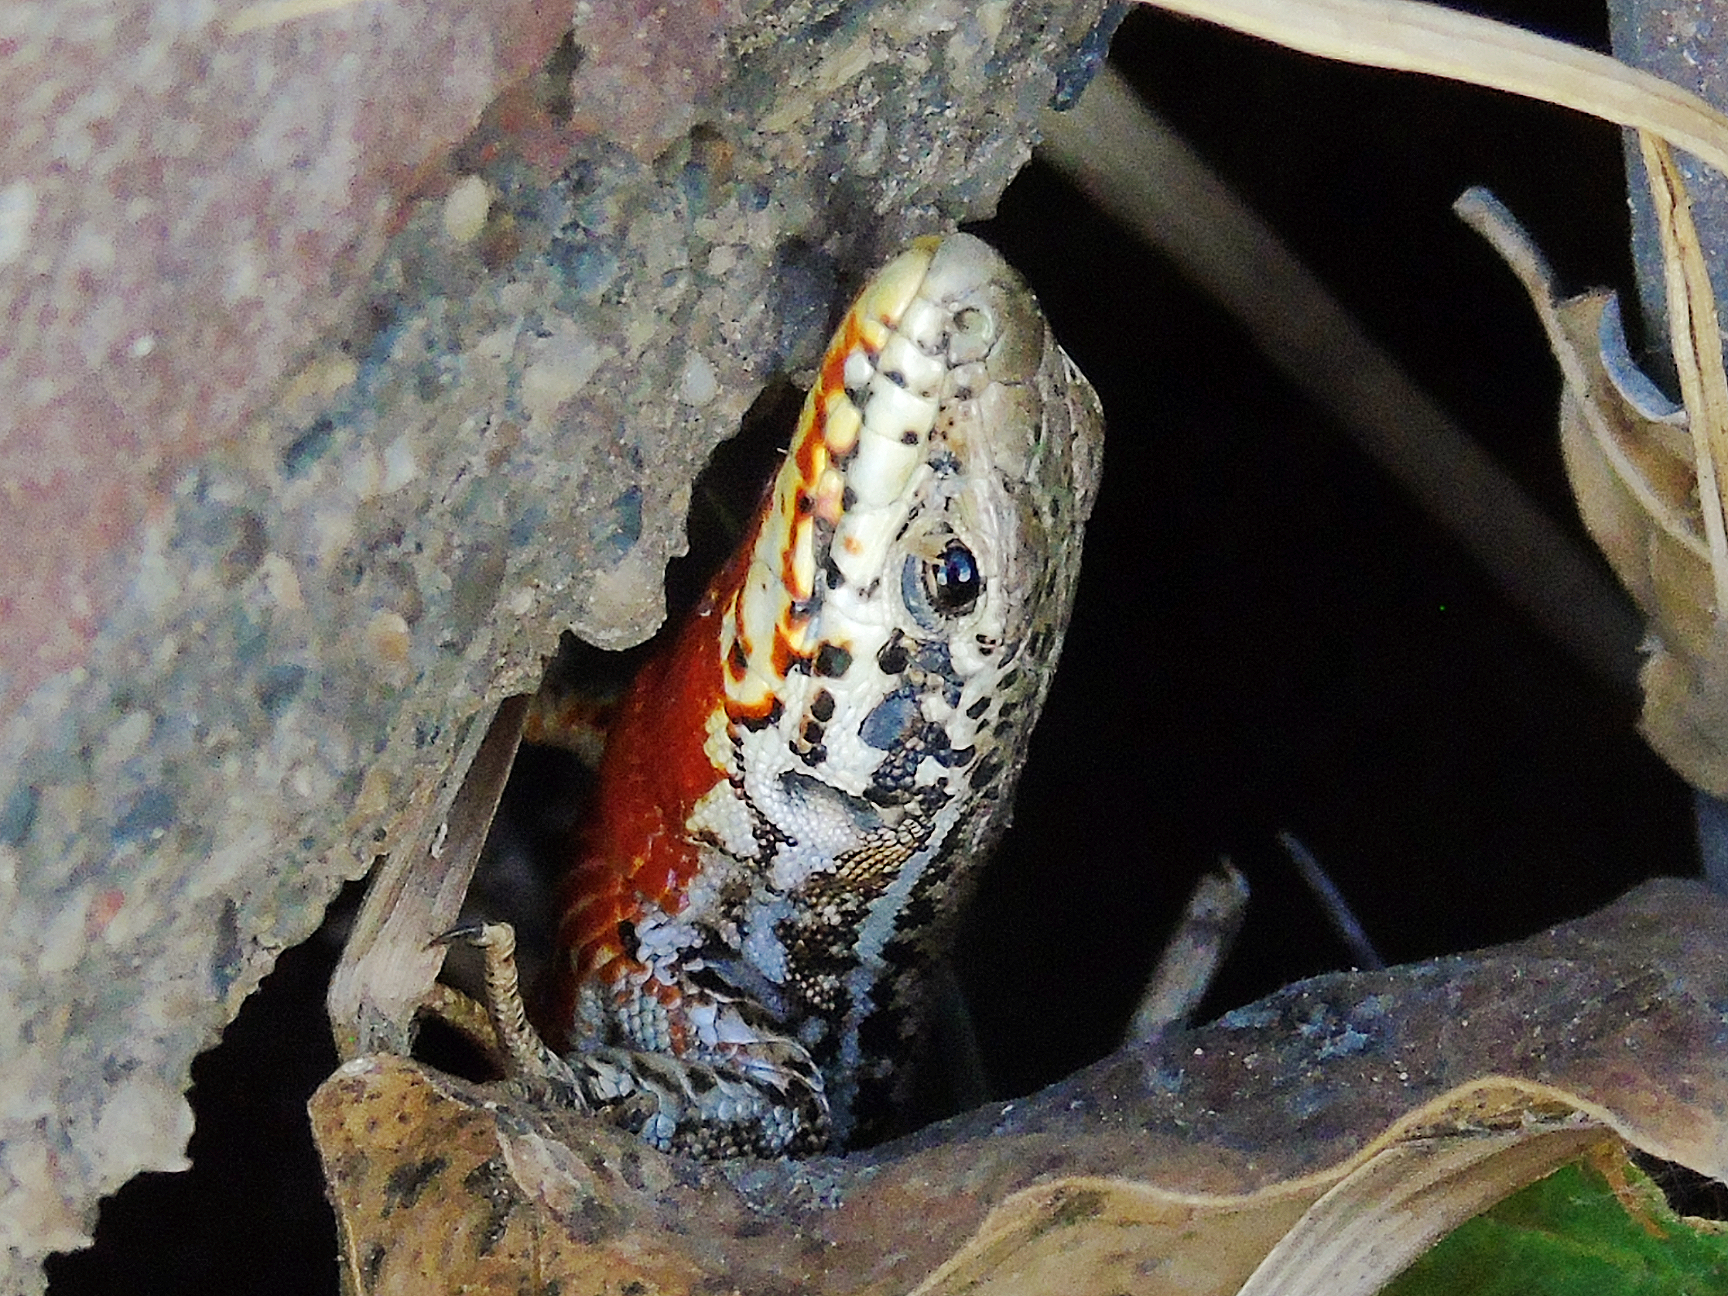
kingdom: Animalia
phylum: Chordata
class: Squamata
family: Lacertidae
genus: Podarcis
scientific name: Podarcis erhardii
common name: Erhard's wall lizard
